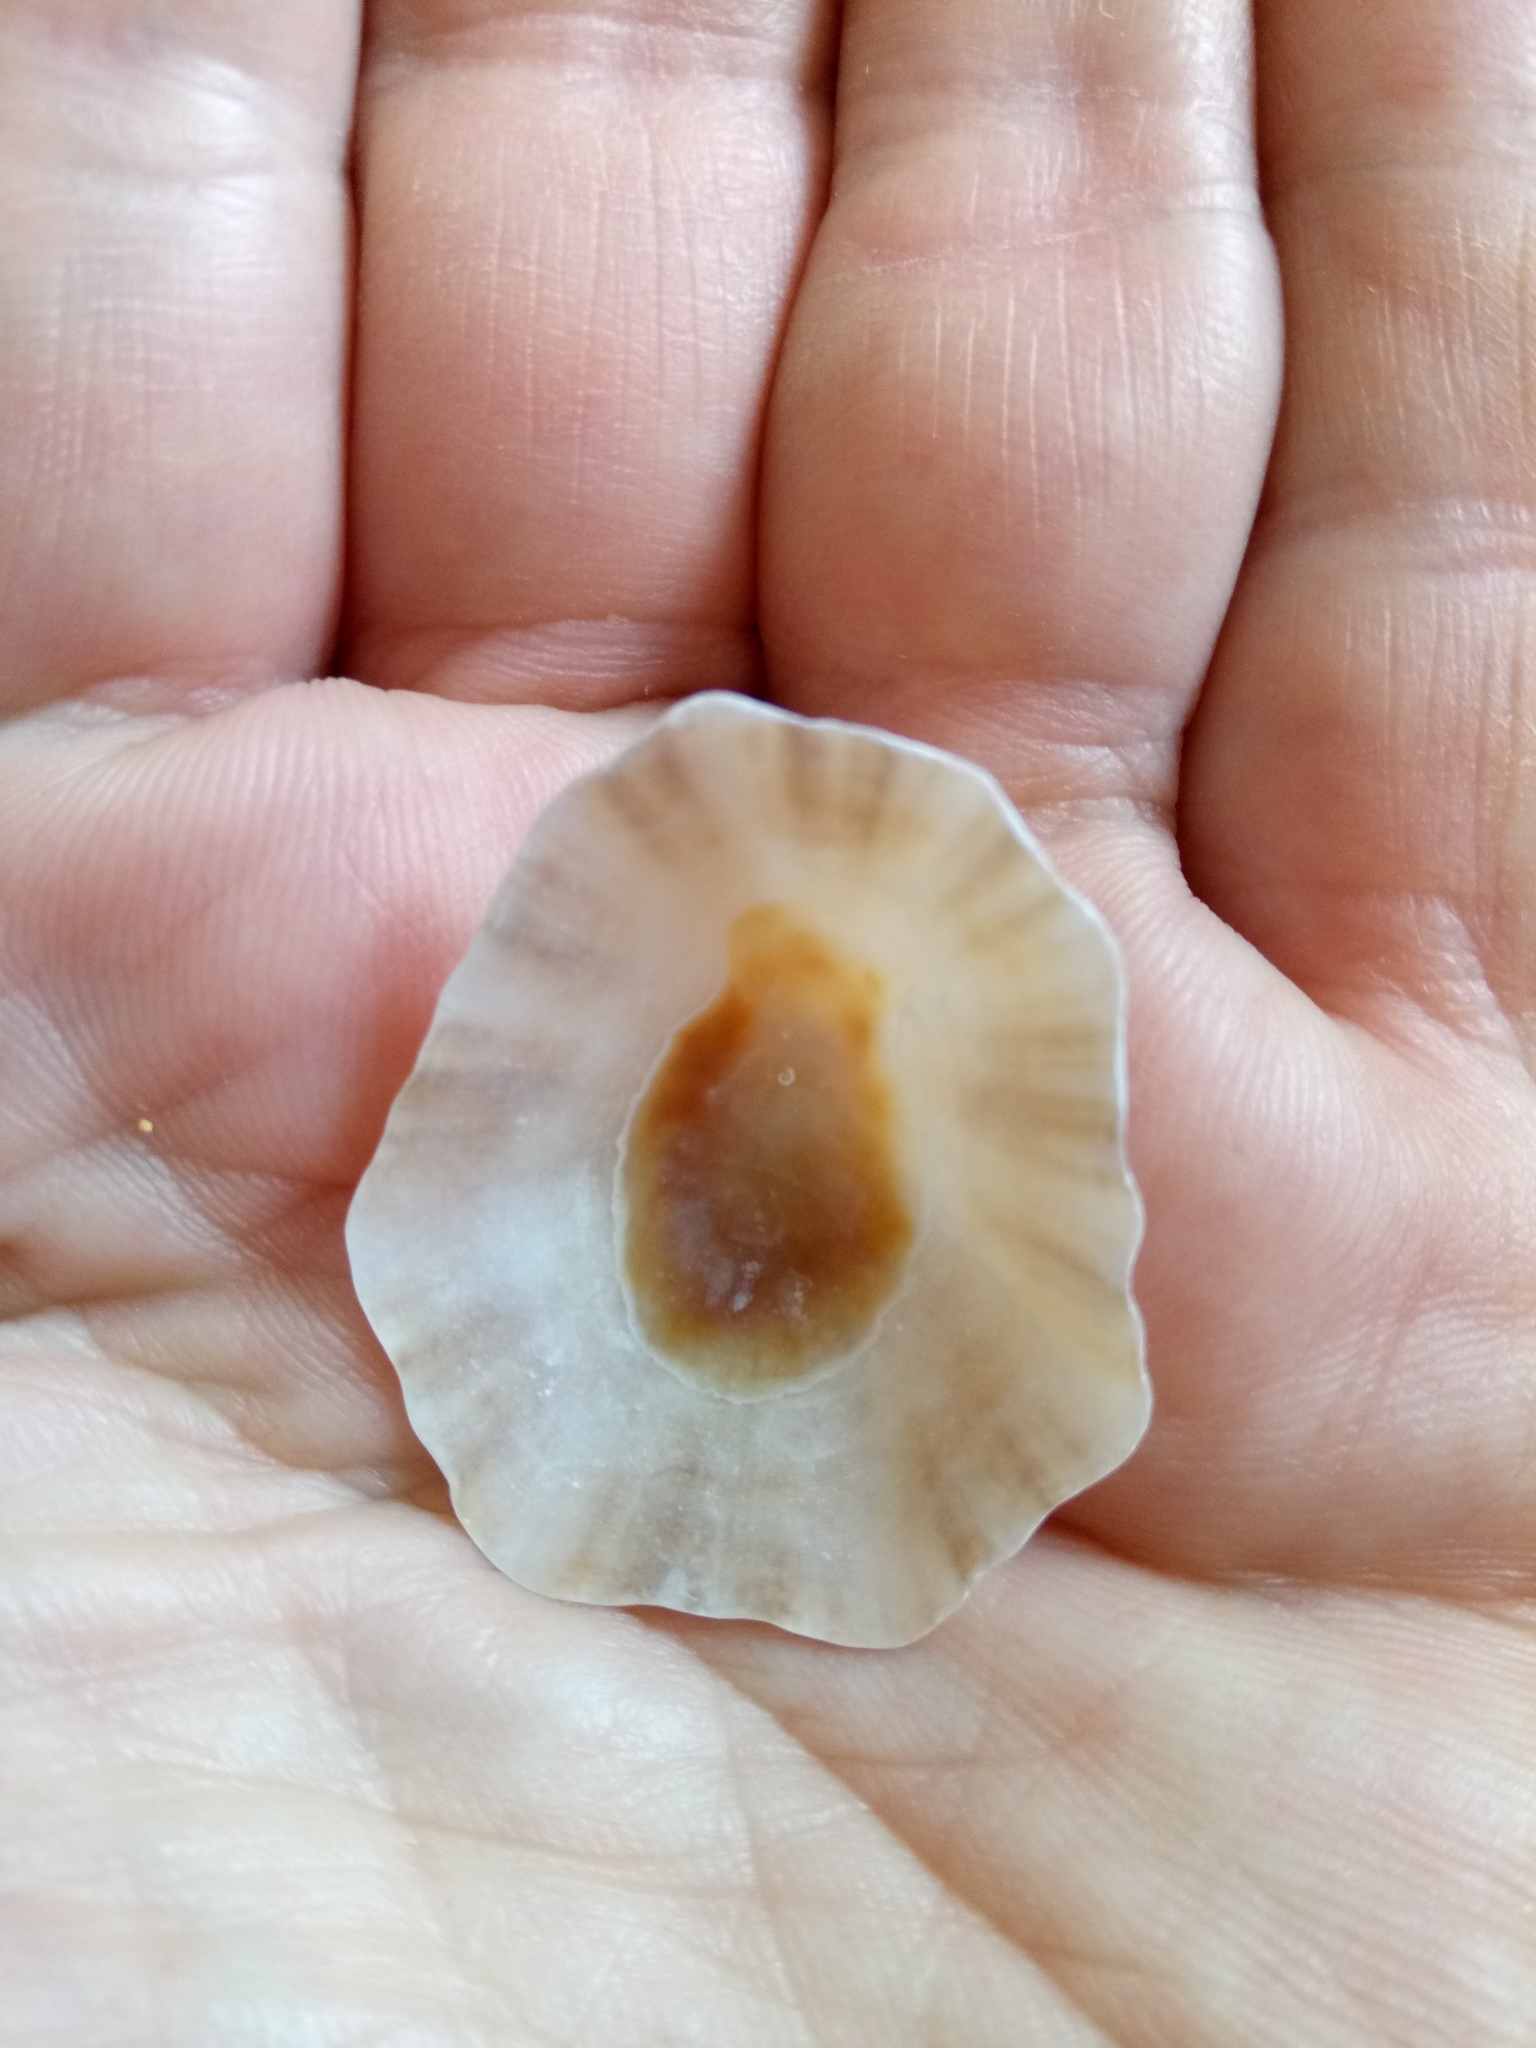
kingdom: Animalia
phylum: Mollusca
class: Gastropoda
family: Patellidae
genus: Patella
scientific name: Patella caerulea
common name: Mediterranean limpet
